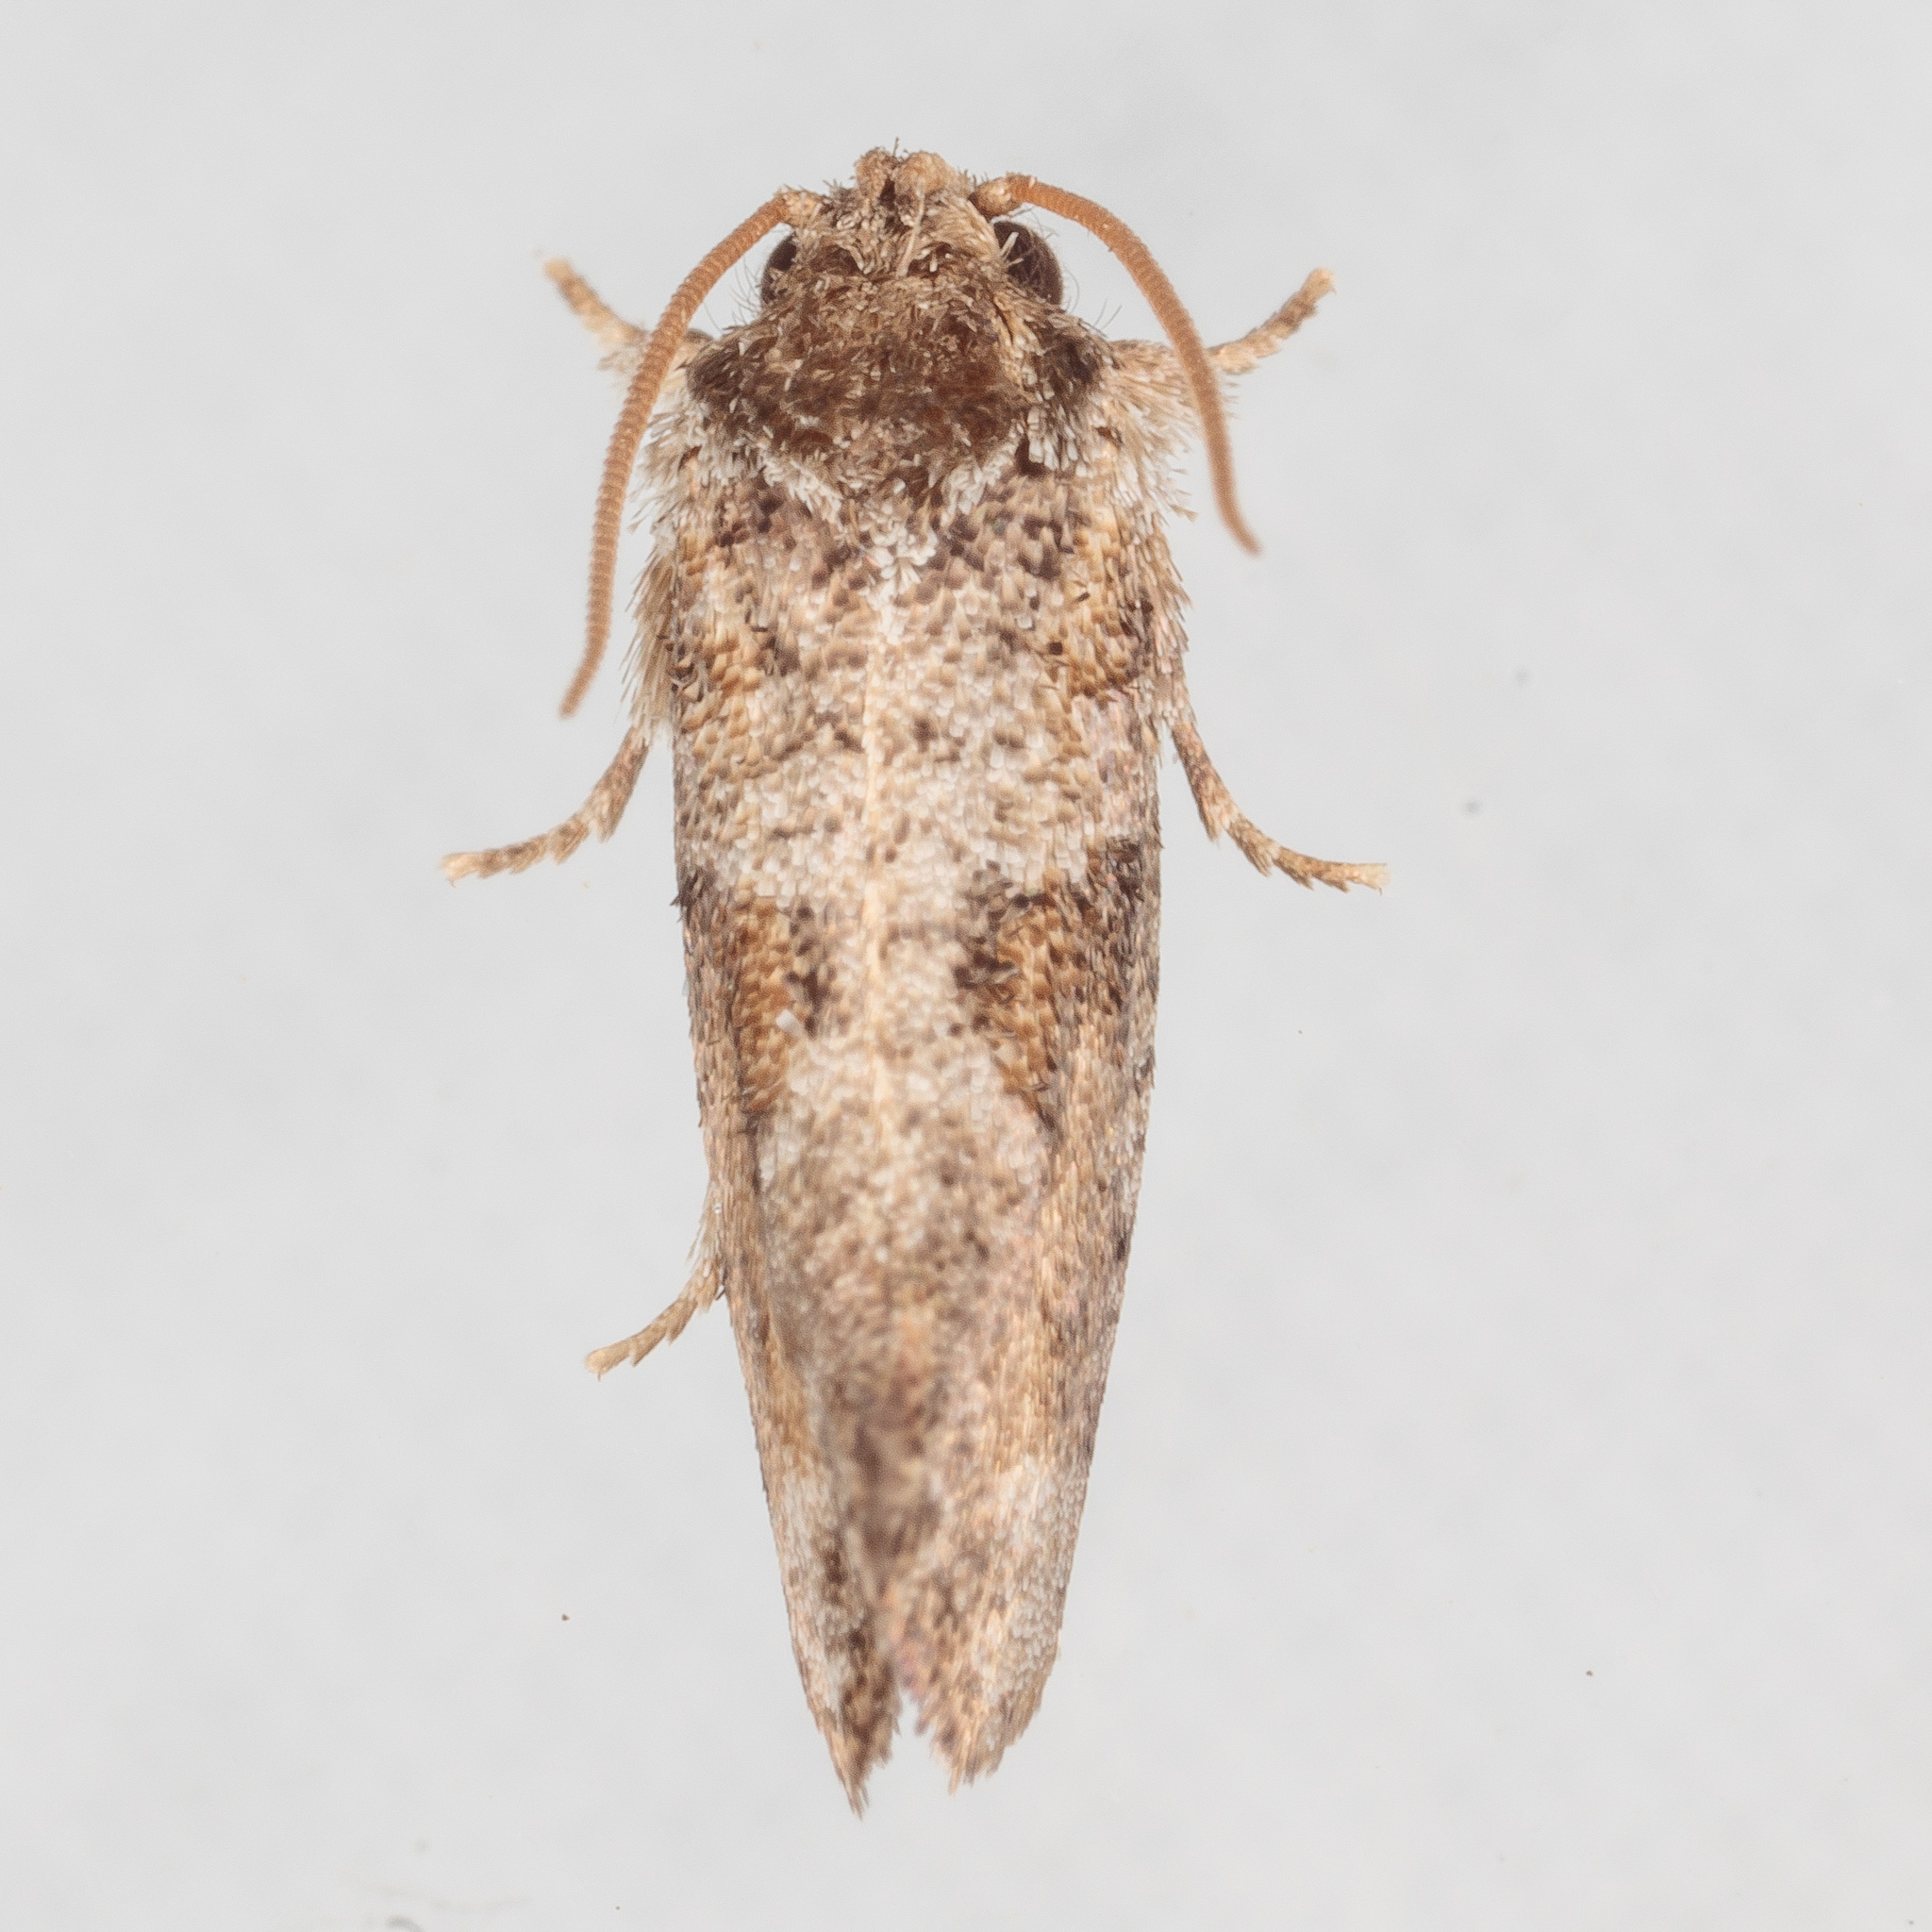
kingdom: Animalia
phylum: Arthropoda
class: Insecta
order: Lepidoptera
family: Tineidae
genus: Acrolophus
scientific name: Acrolophus piger
